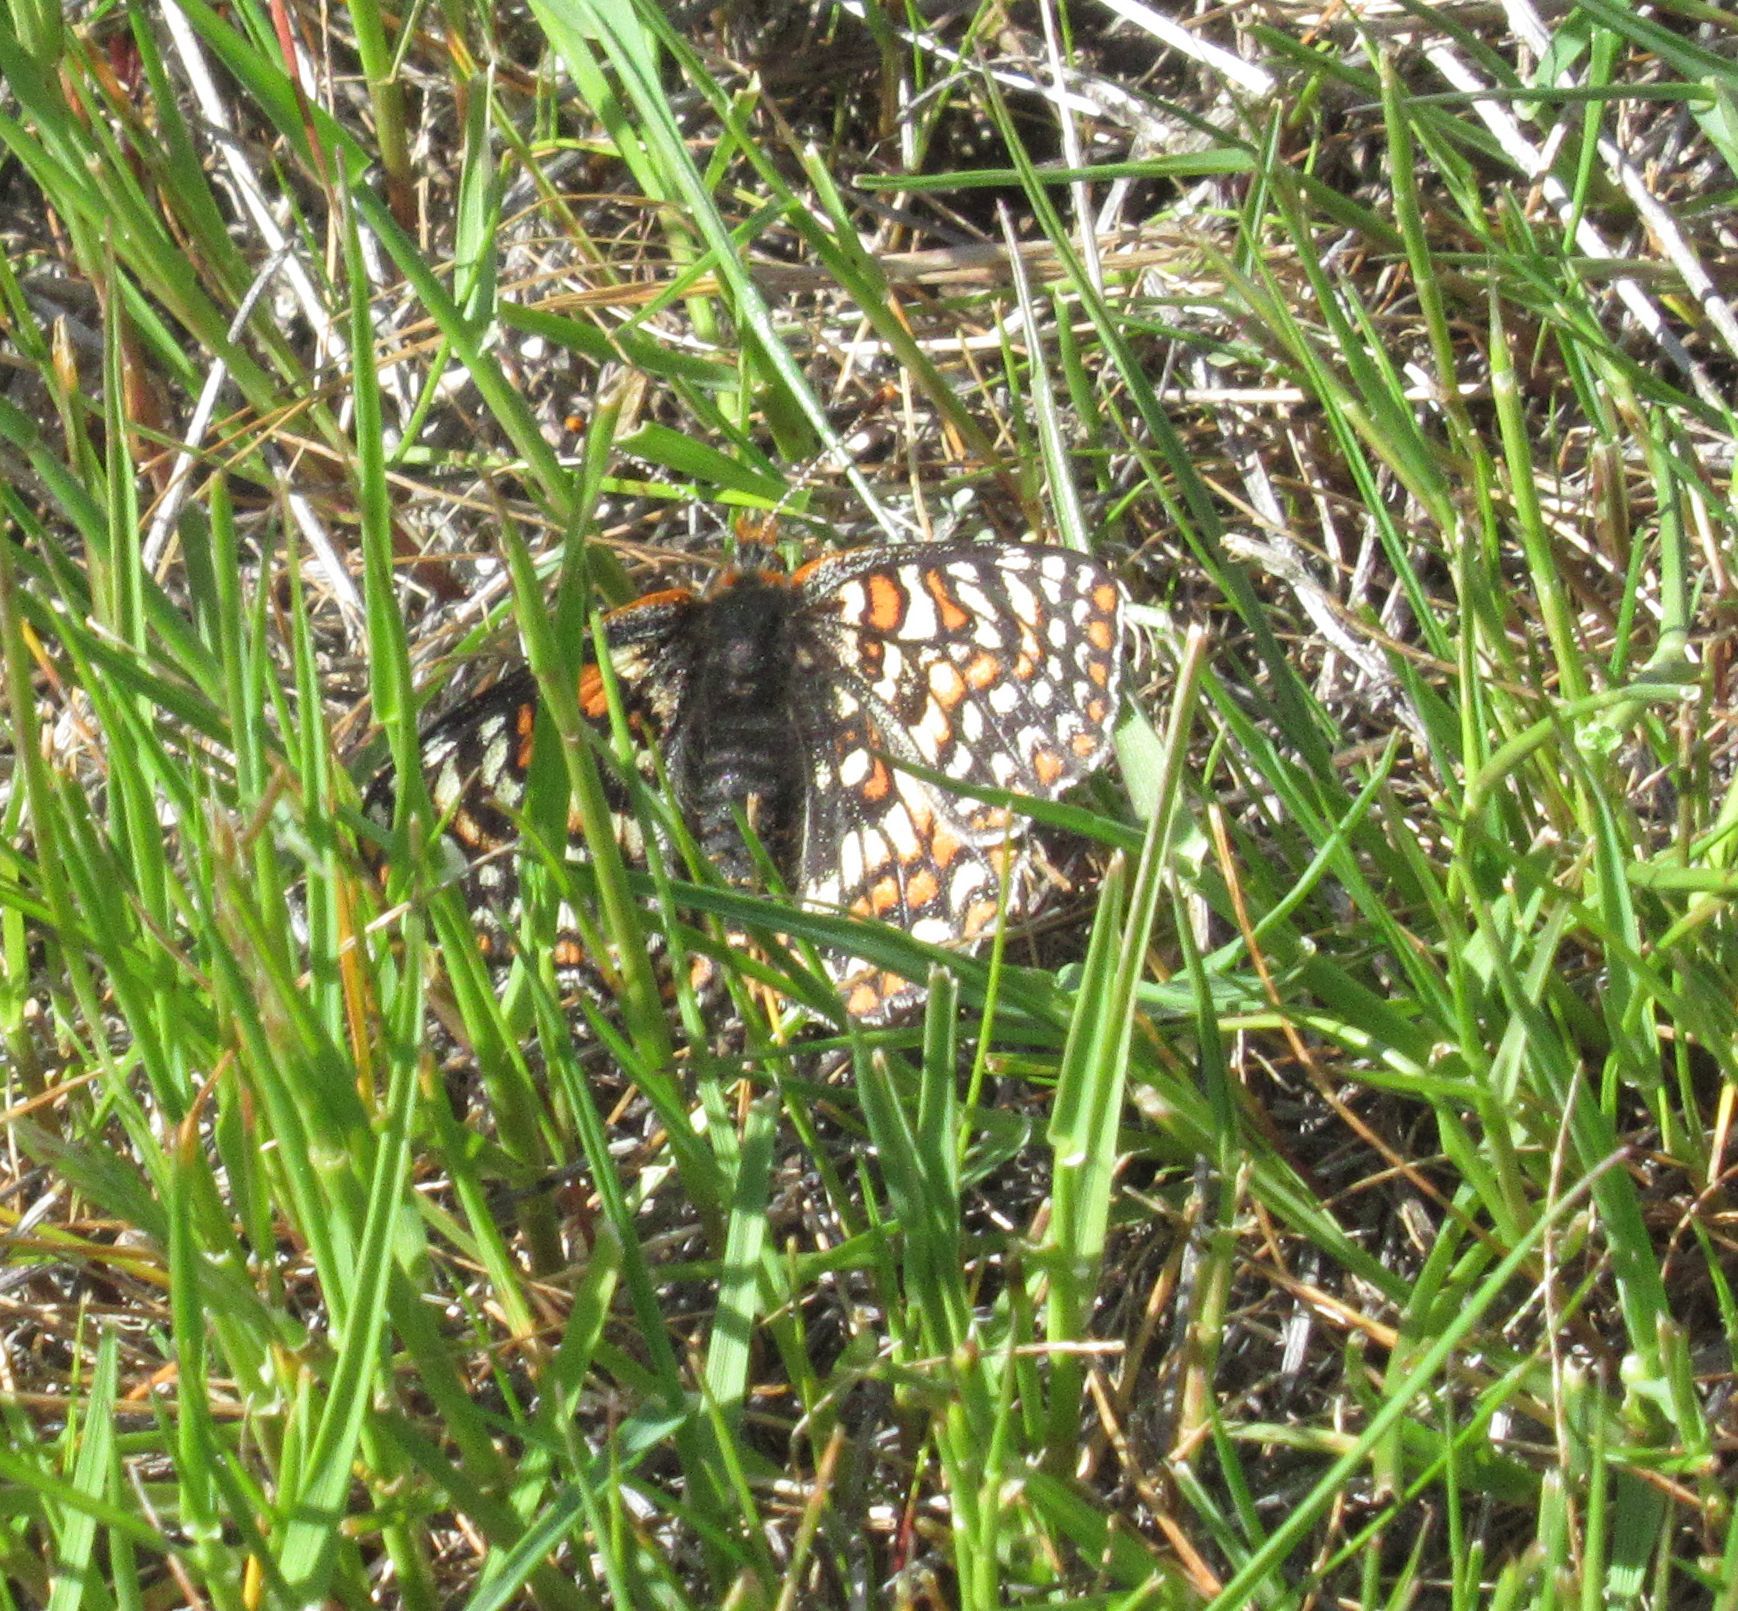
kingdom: Animalia
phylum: Arthropoda
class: Insecta
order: Lepidoptera
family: Nymphalidae
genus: Occidryas
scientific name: Occidryas editha
